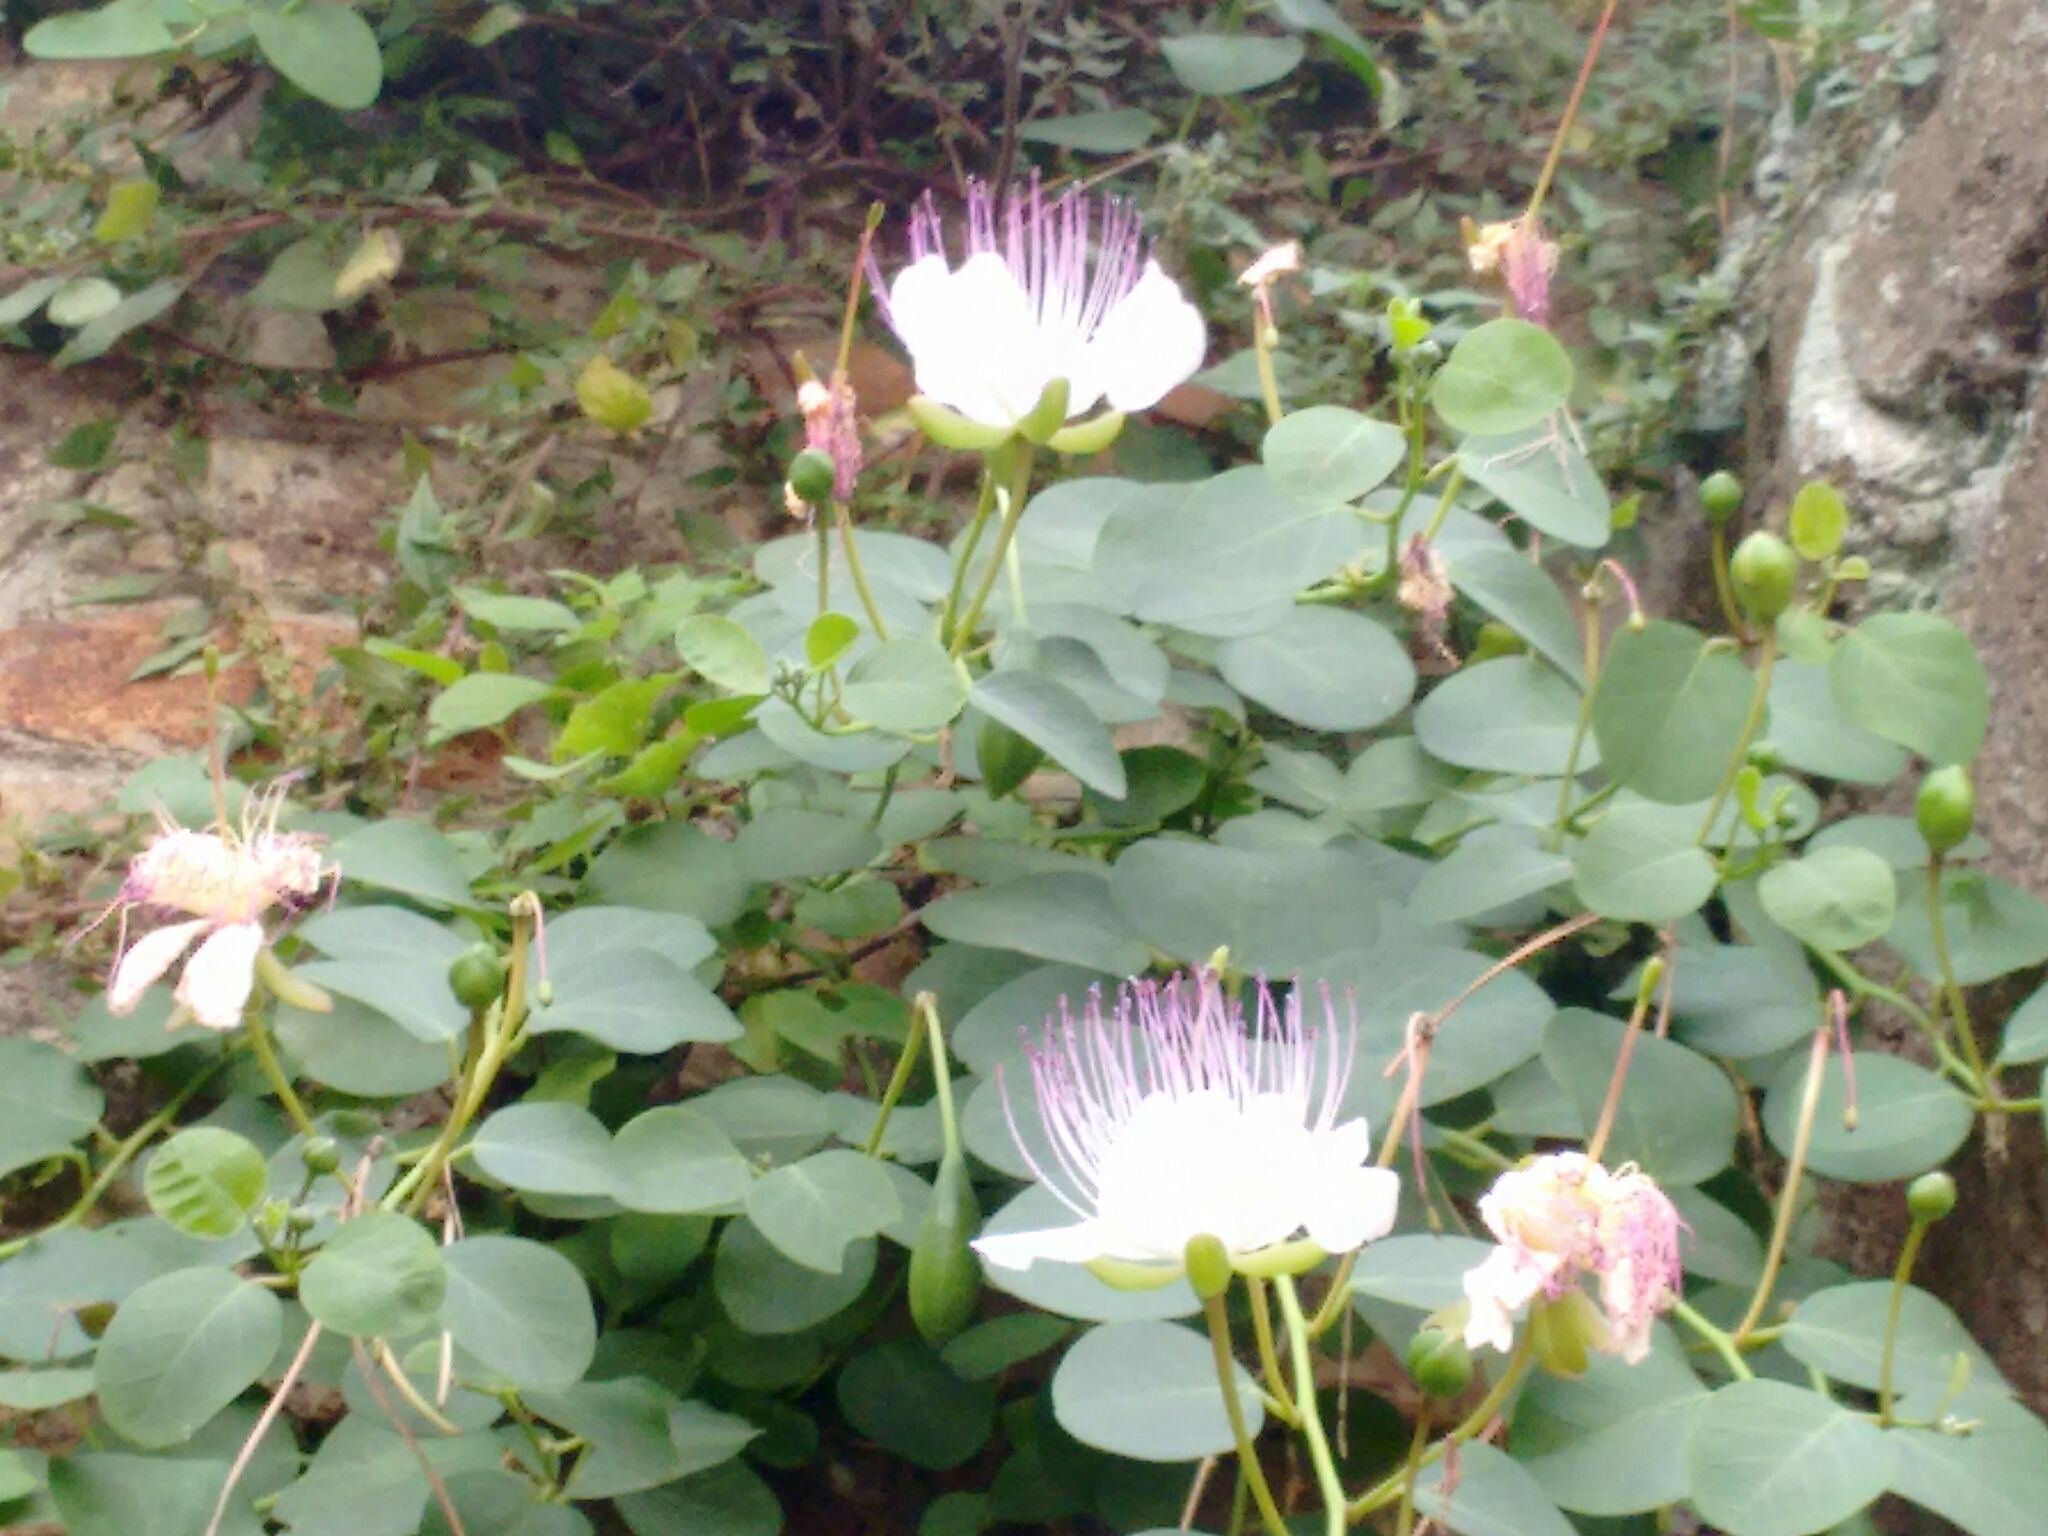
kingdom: Plantae
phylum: Tracheophyta
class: Magnoliopsida
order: Brassicales
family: Capparaceae
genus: Capparis
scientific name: Capparis spinosa
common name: Caper
